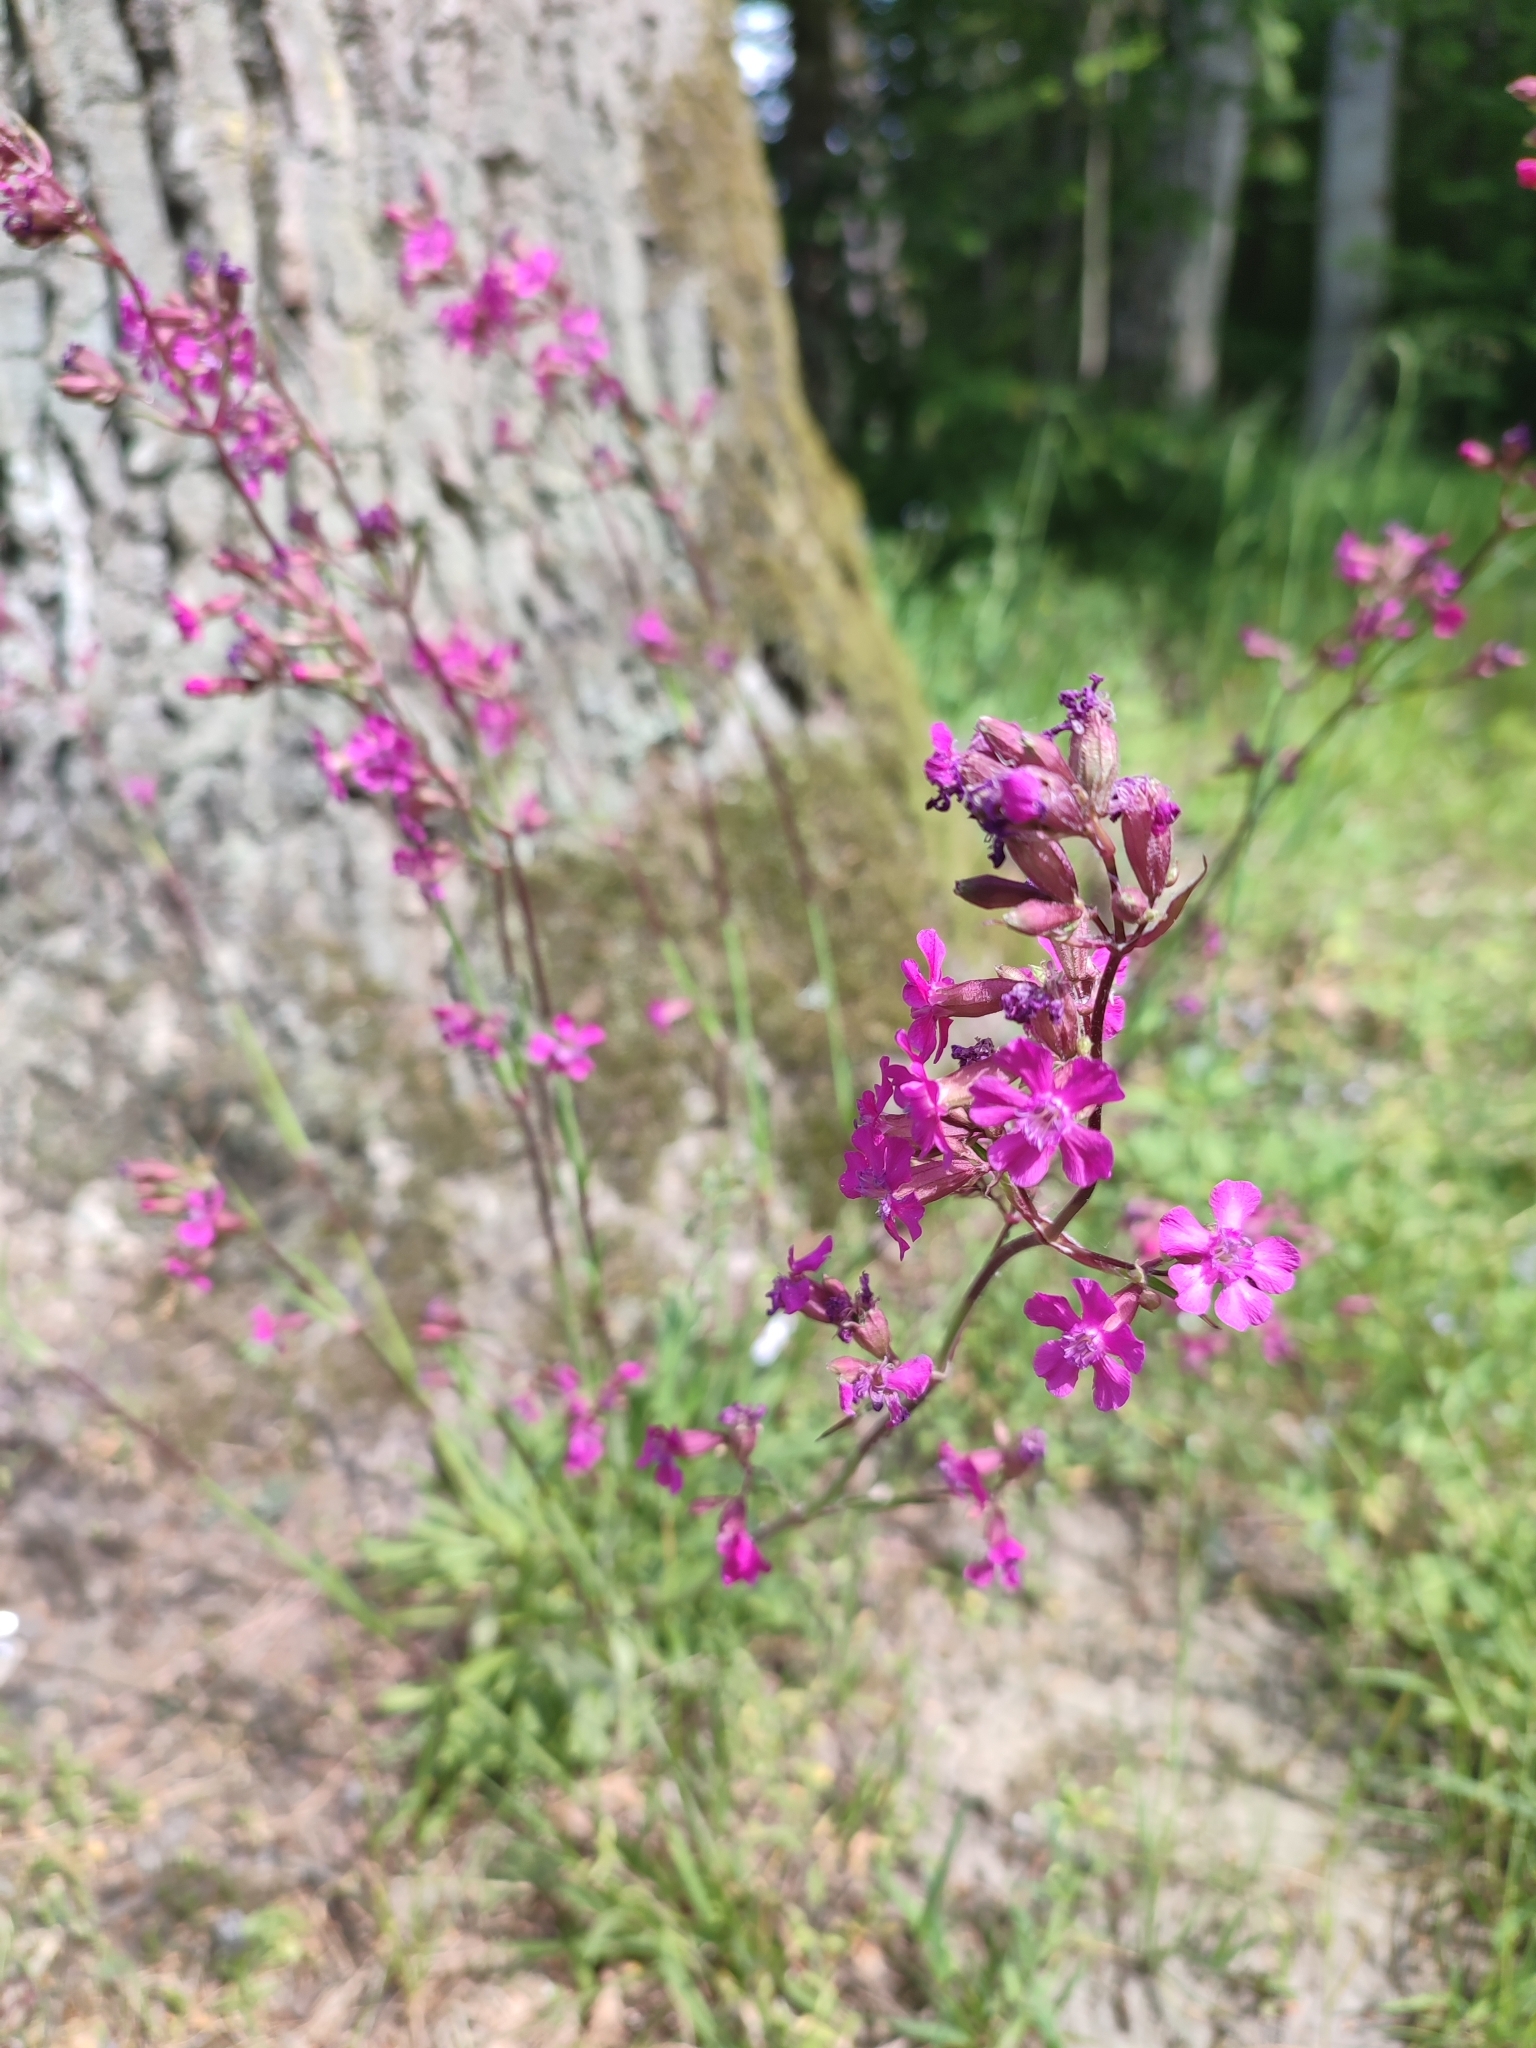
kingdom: Plantae
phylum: Tracheophyta
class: Magnoliopsida
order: Caryophyllales
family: Caryophyllaceae
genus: Viscaria
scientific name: Viscaria vulgaris
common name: Clammy campion
